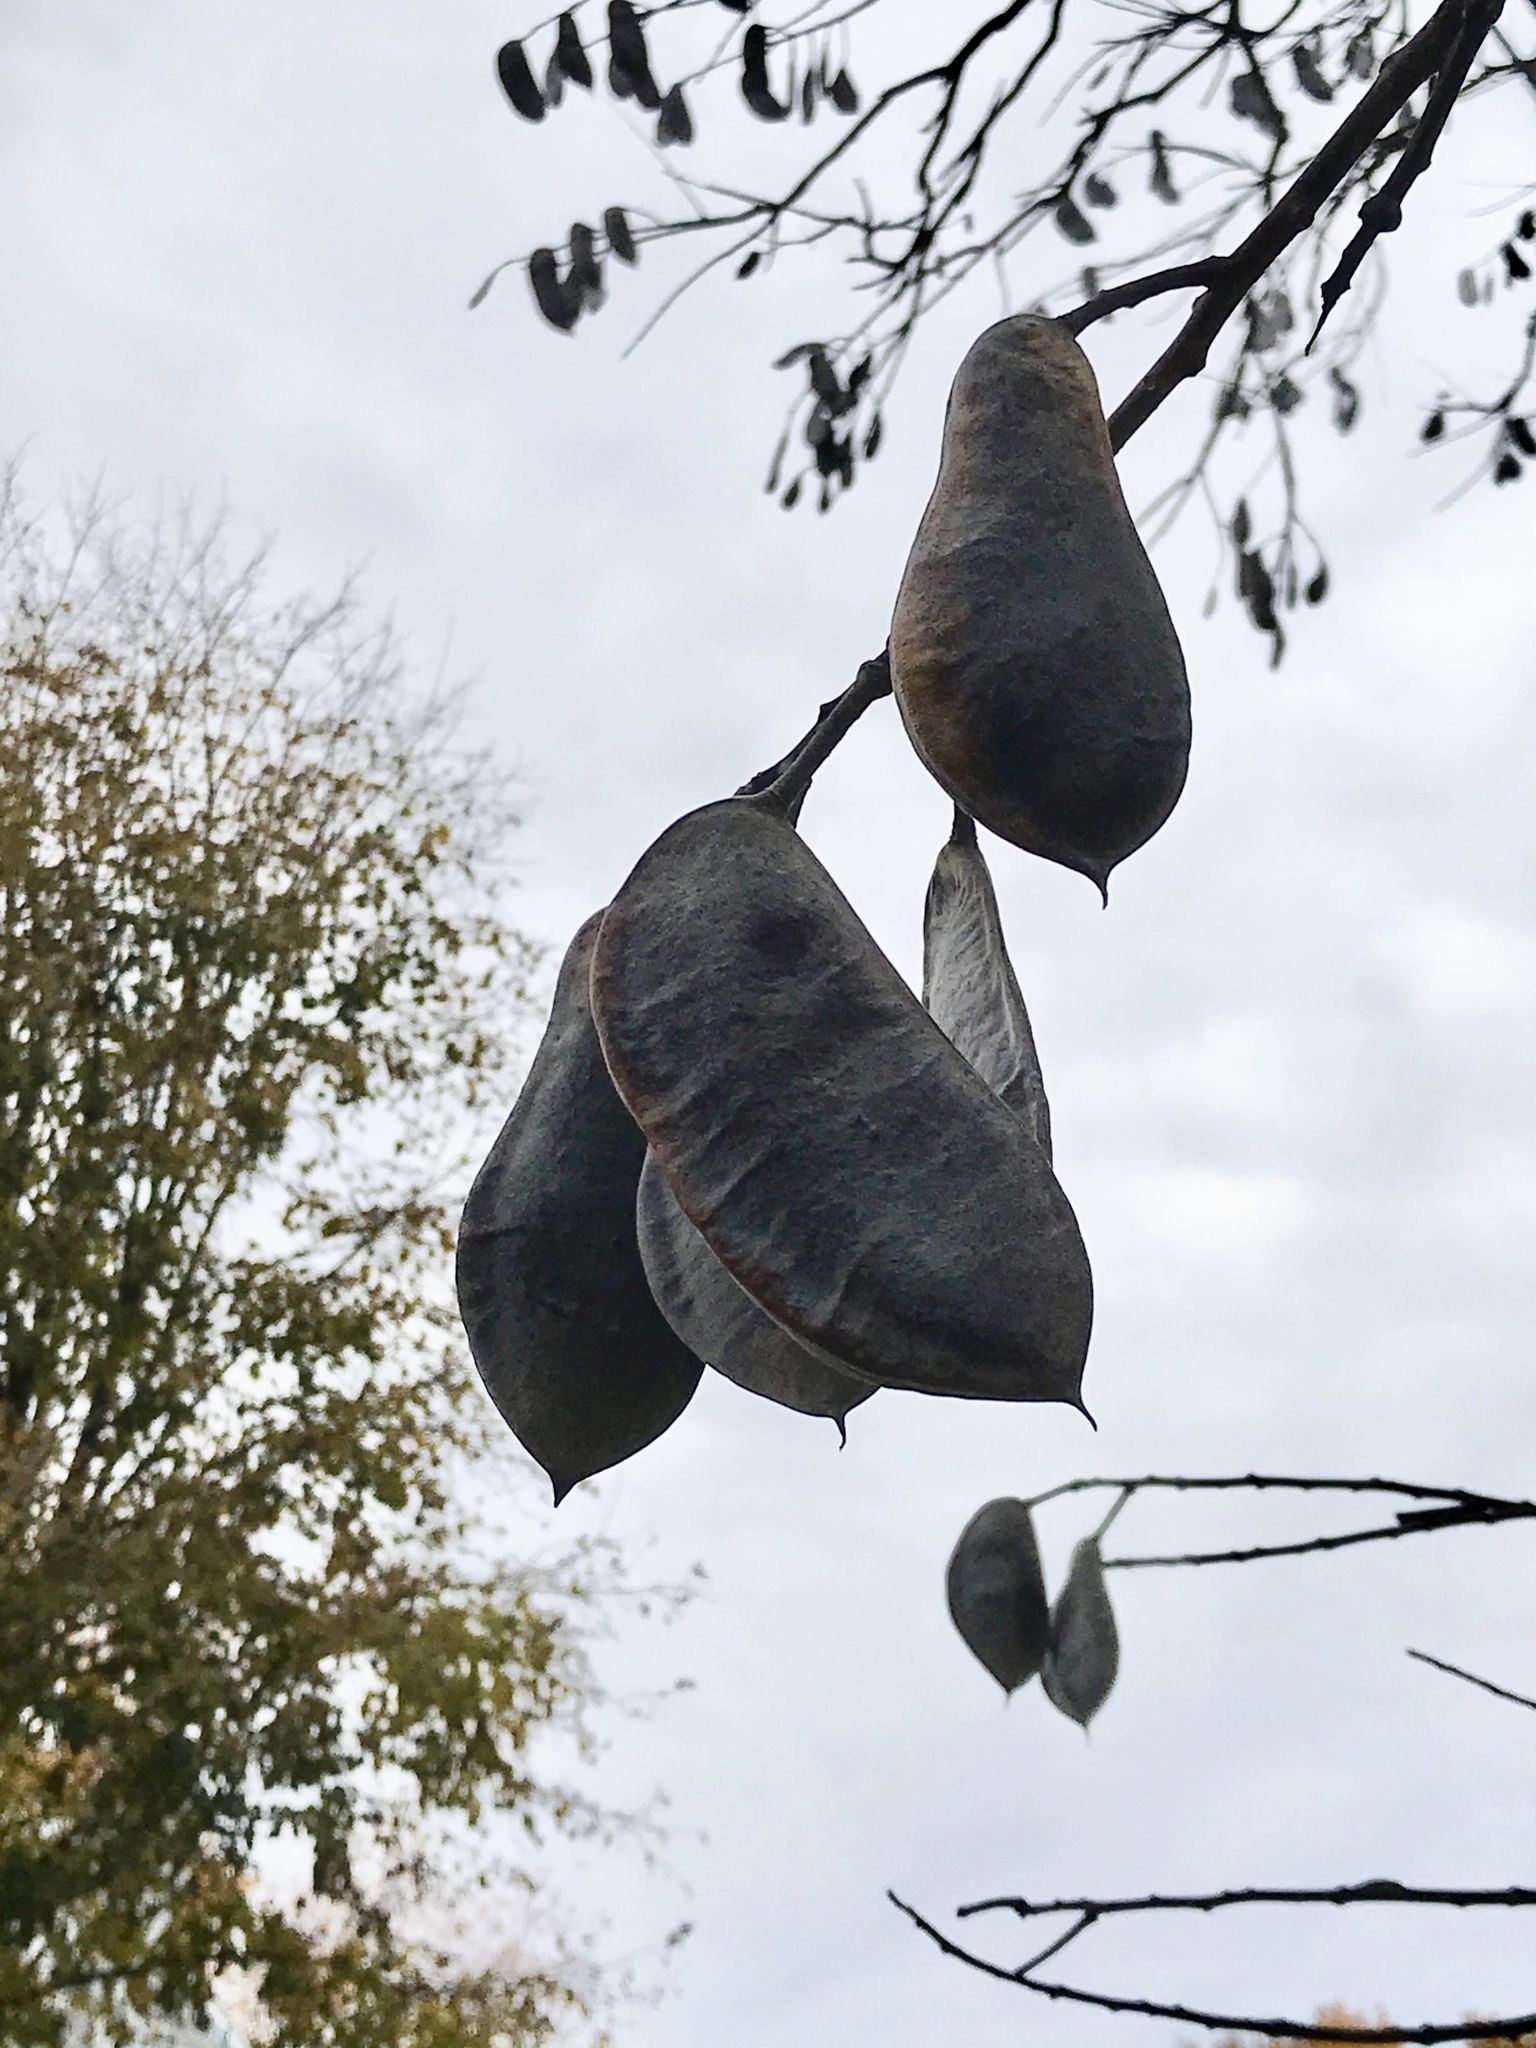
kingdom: Plantae
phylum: Tracheophyta
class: Magnoliopsida
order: Fabales
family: Fabaceae
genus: Gymnocladus
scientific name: Gymnocladus dioicus
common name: Kentucky coffee-tree
